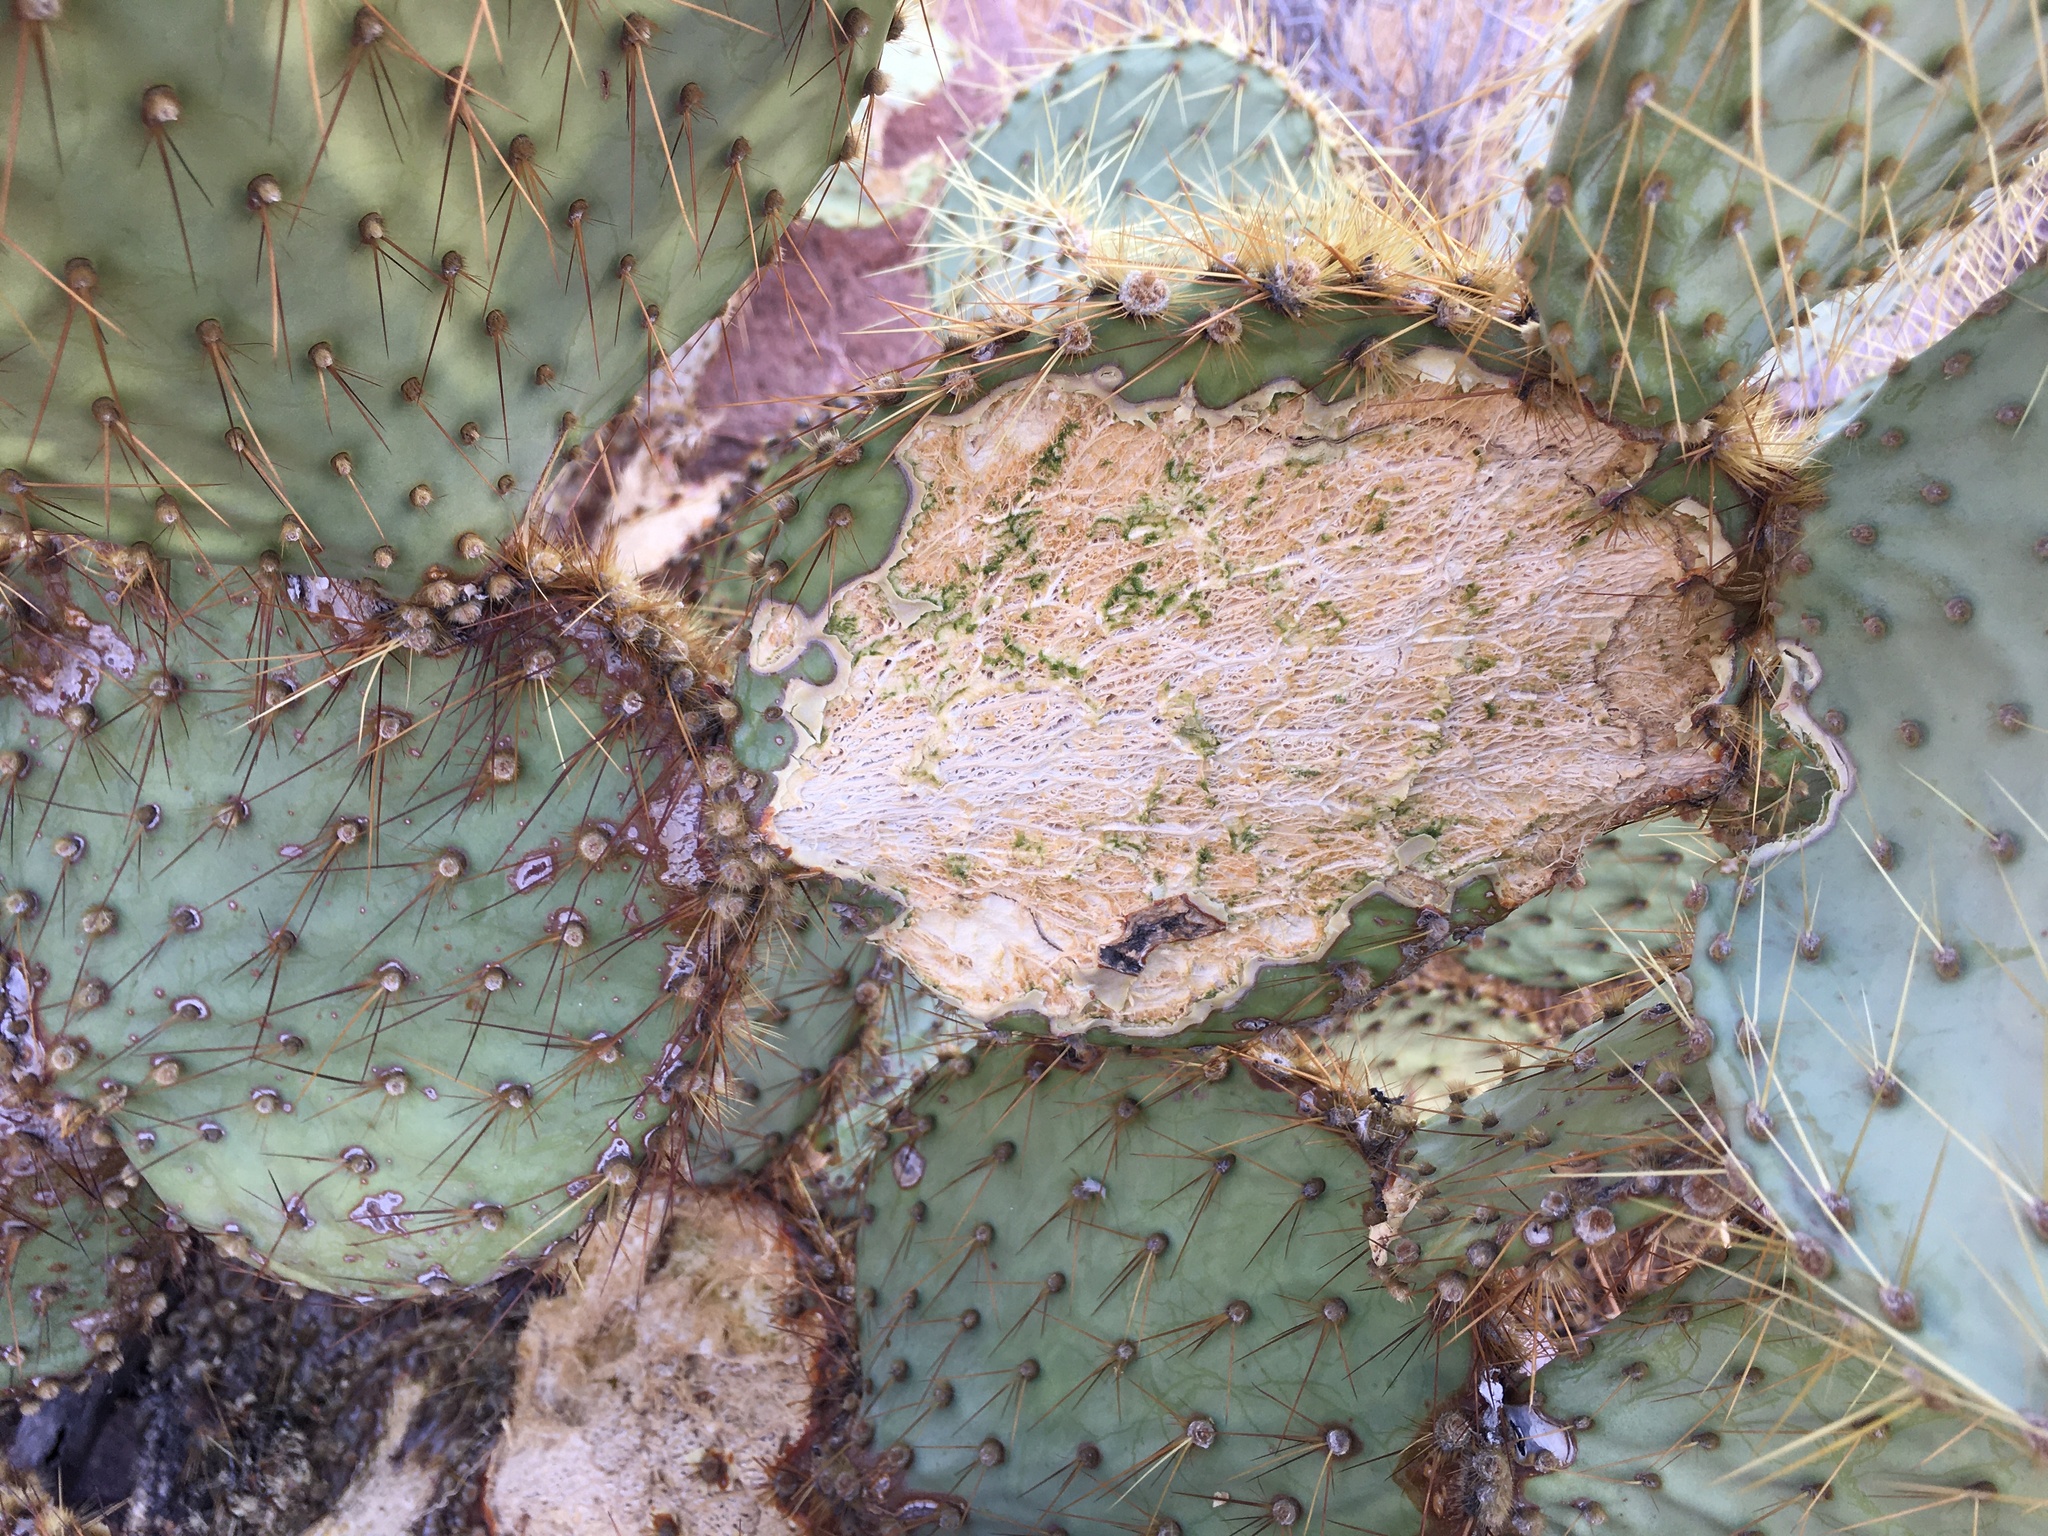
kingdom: Plantae
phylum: Tracheophyta
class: Magnoliopsida
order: Caryophyllales
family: Cactaceae
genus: Opuntia
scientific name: Opuntia chlorotica
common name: Dollar-joint prickly-pear
